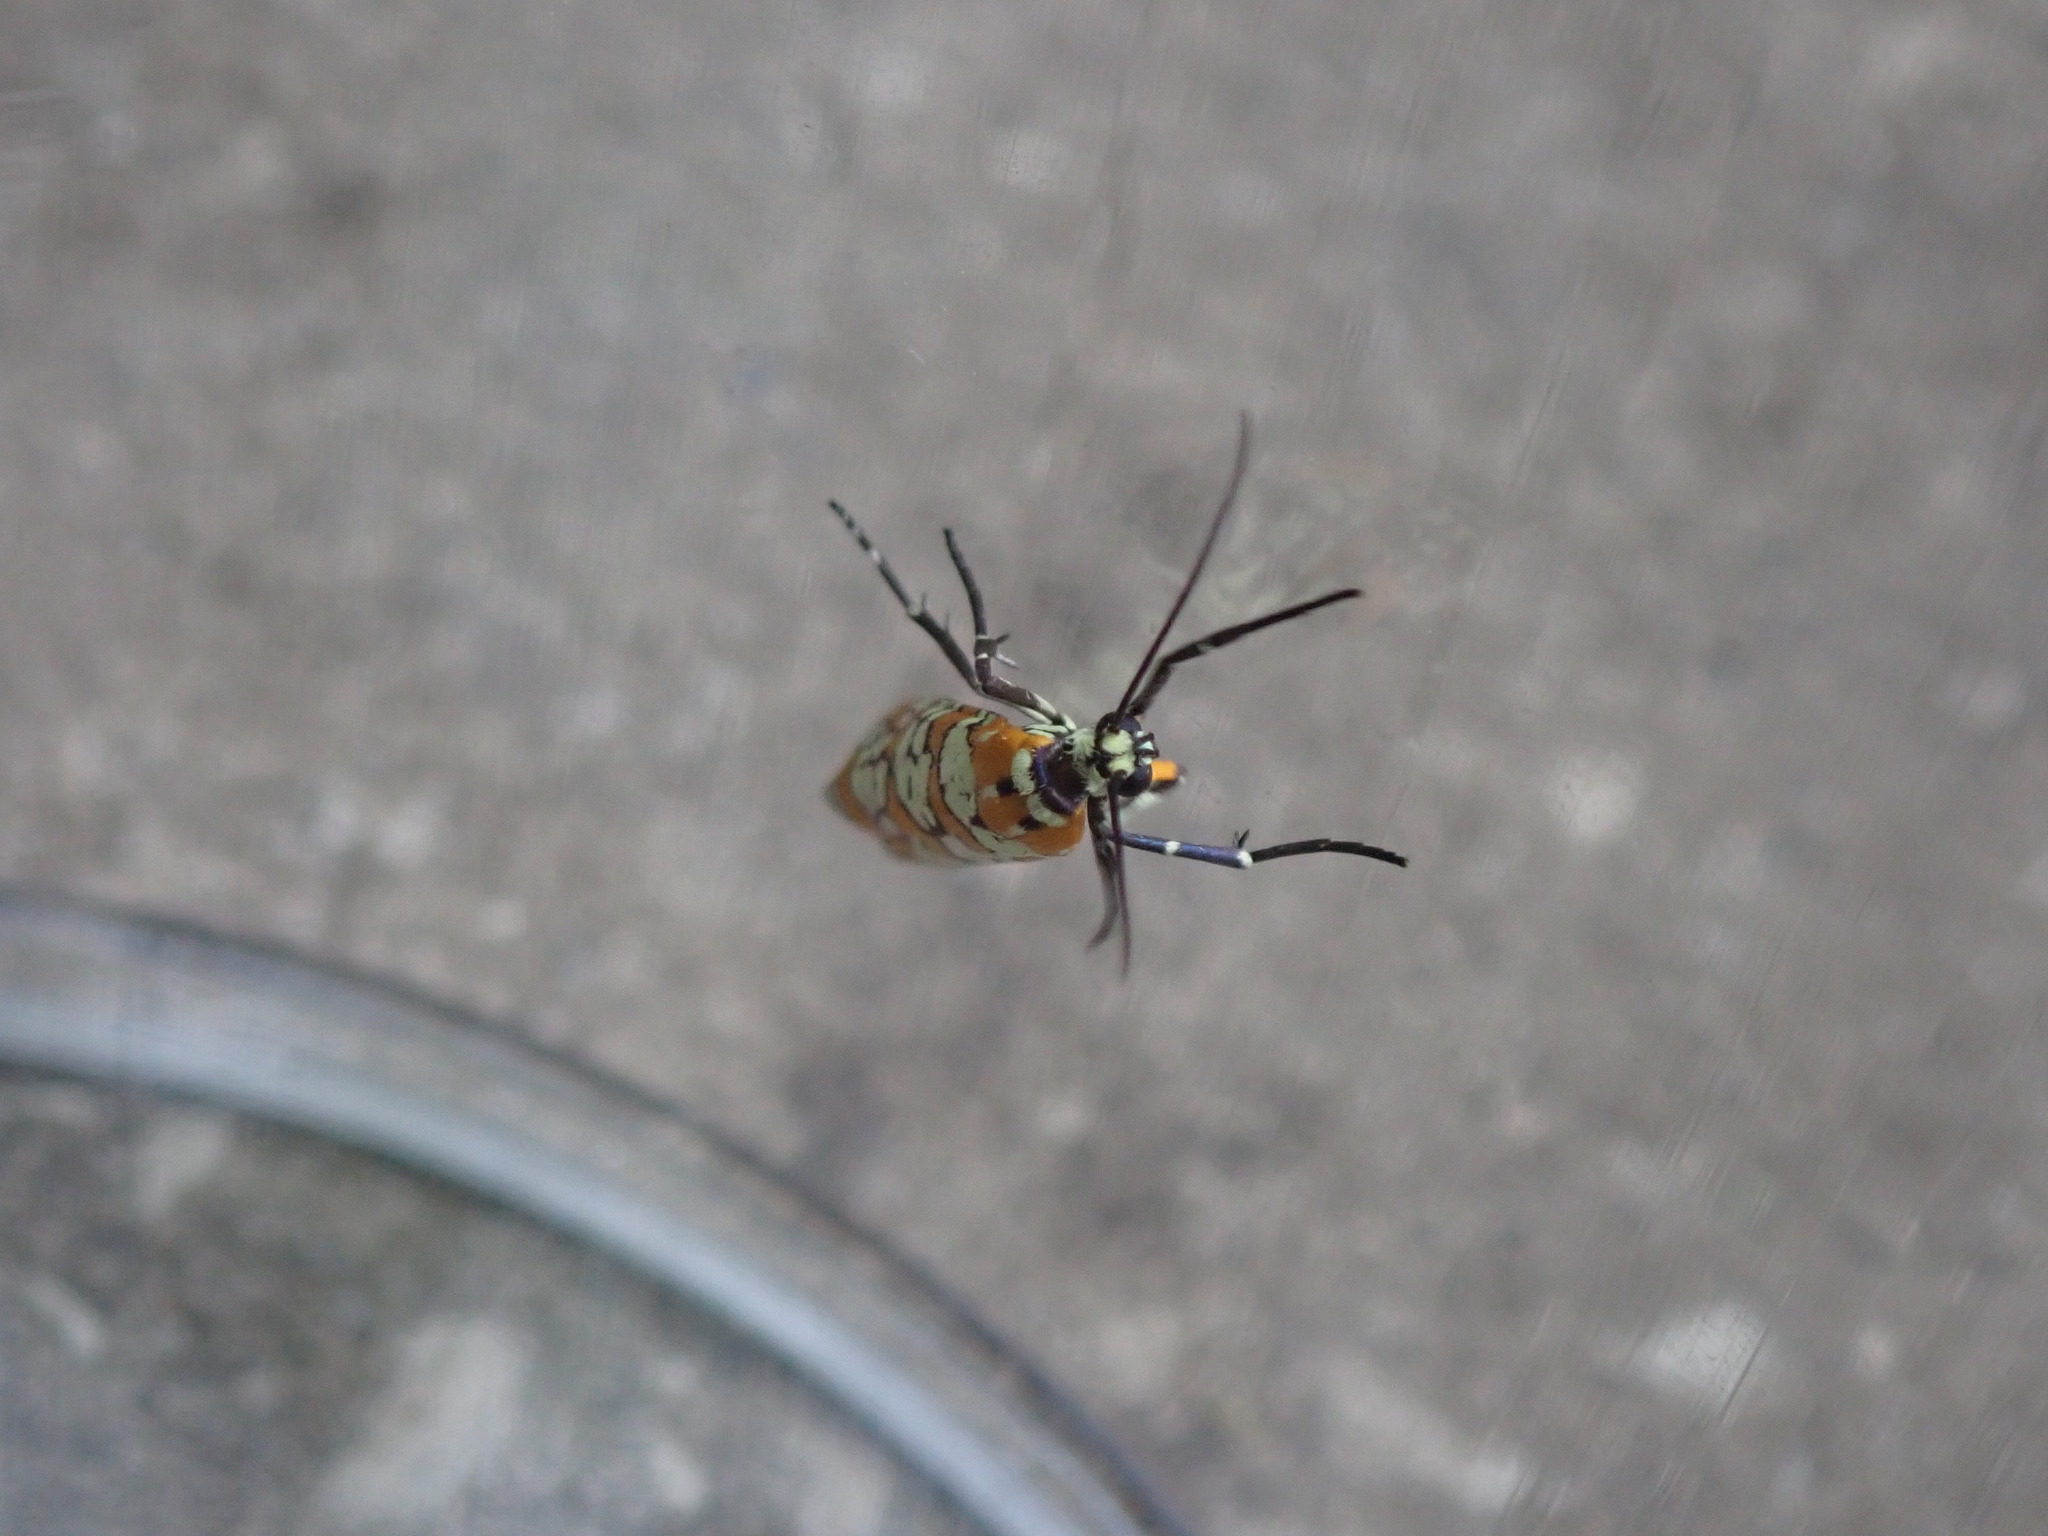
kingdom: Animalia
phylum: Arthropoda
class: Insecta
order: Lepidoptera
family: Attevidae
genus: Atteva
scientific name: Atteva punctella
